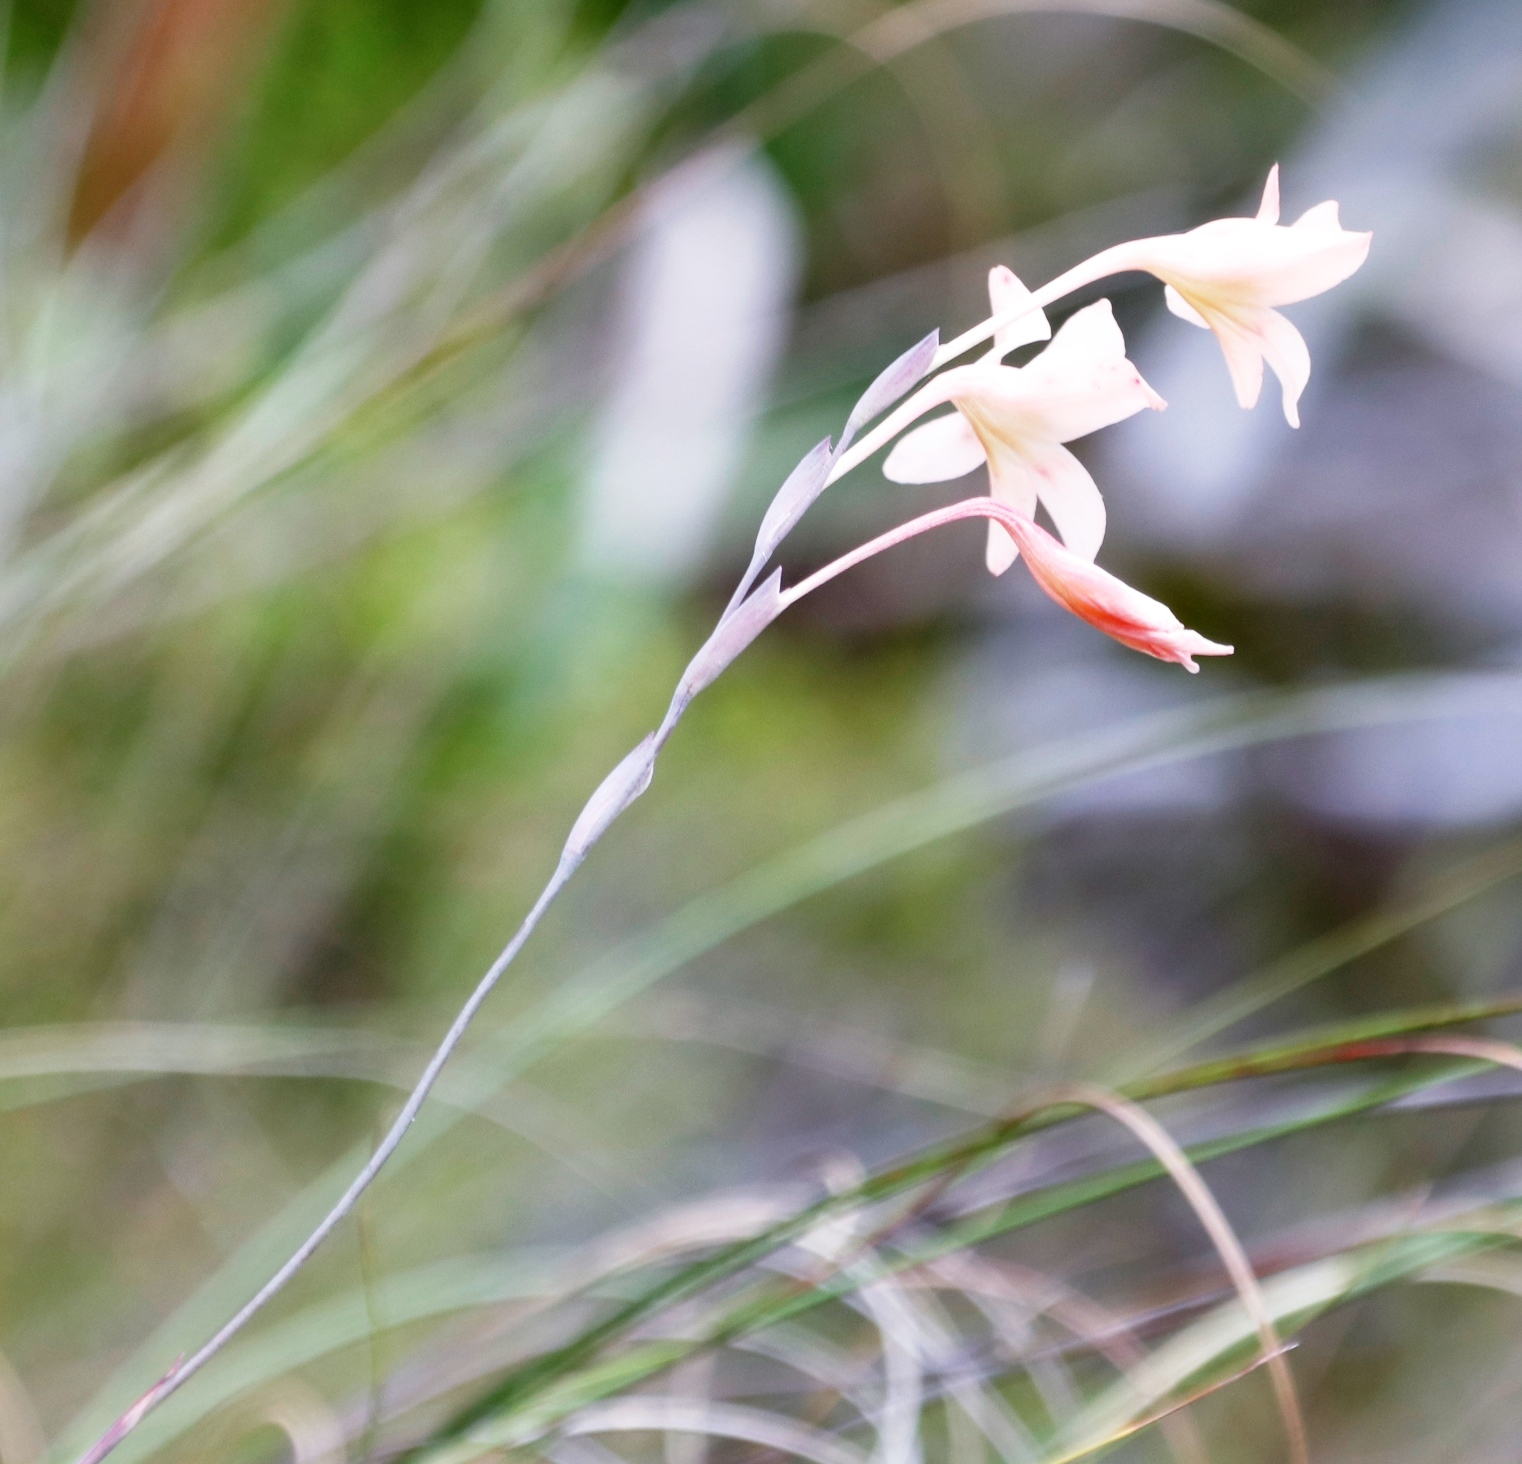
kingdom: Plantae
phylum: Tracheophyta
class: Liliopsida
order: Asparagales
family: Iridaceae
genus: Gladiolus
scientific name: Gladiolus monticola
